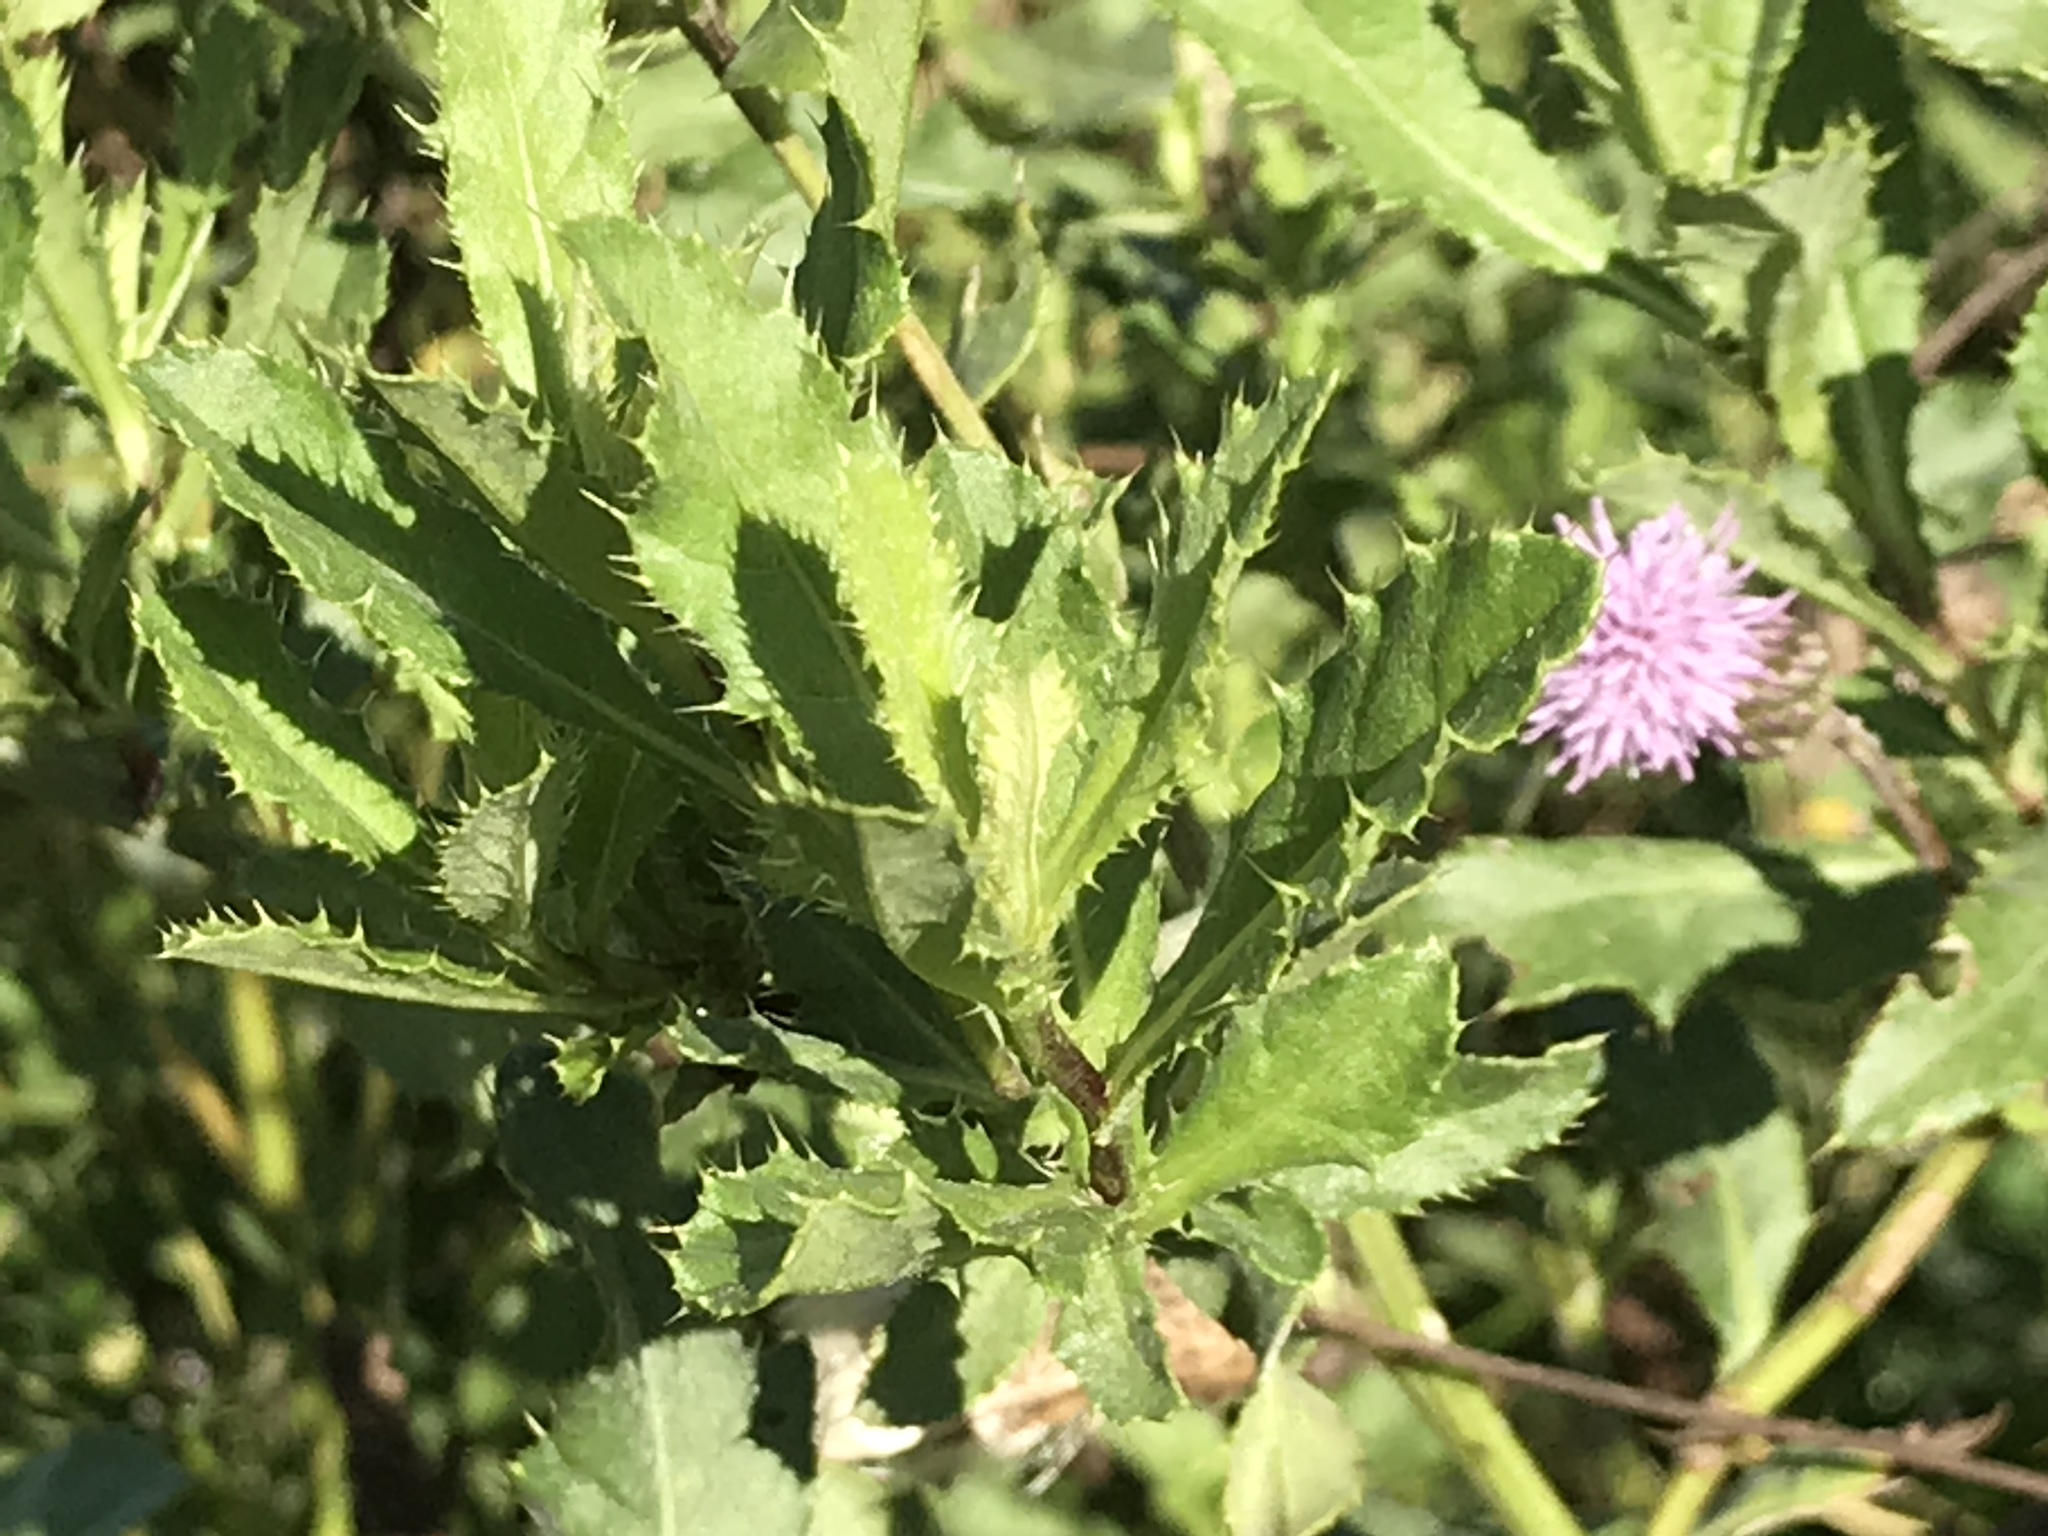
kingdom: Plantae
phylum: Tracheophyta
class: Magnoliopsida
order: Asterales
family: Asteraceae
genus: Cirsium
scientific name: Cirsium arvense
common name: Creeping thistle
